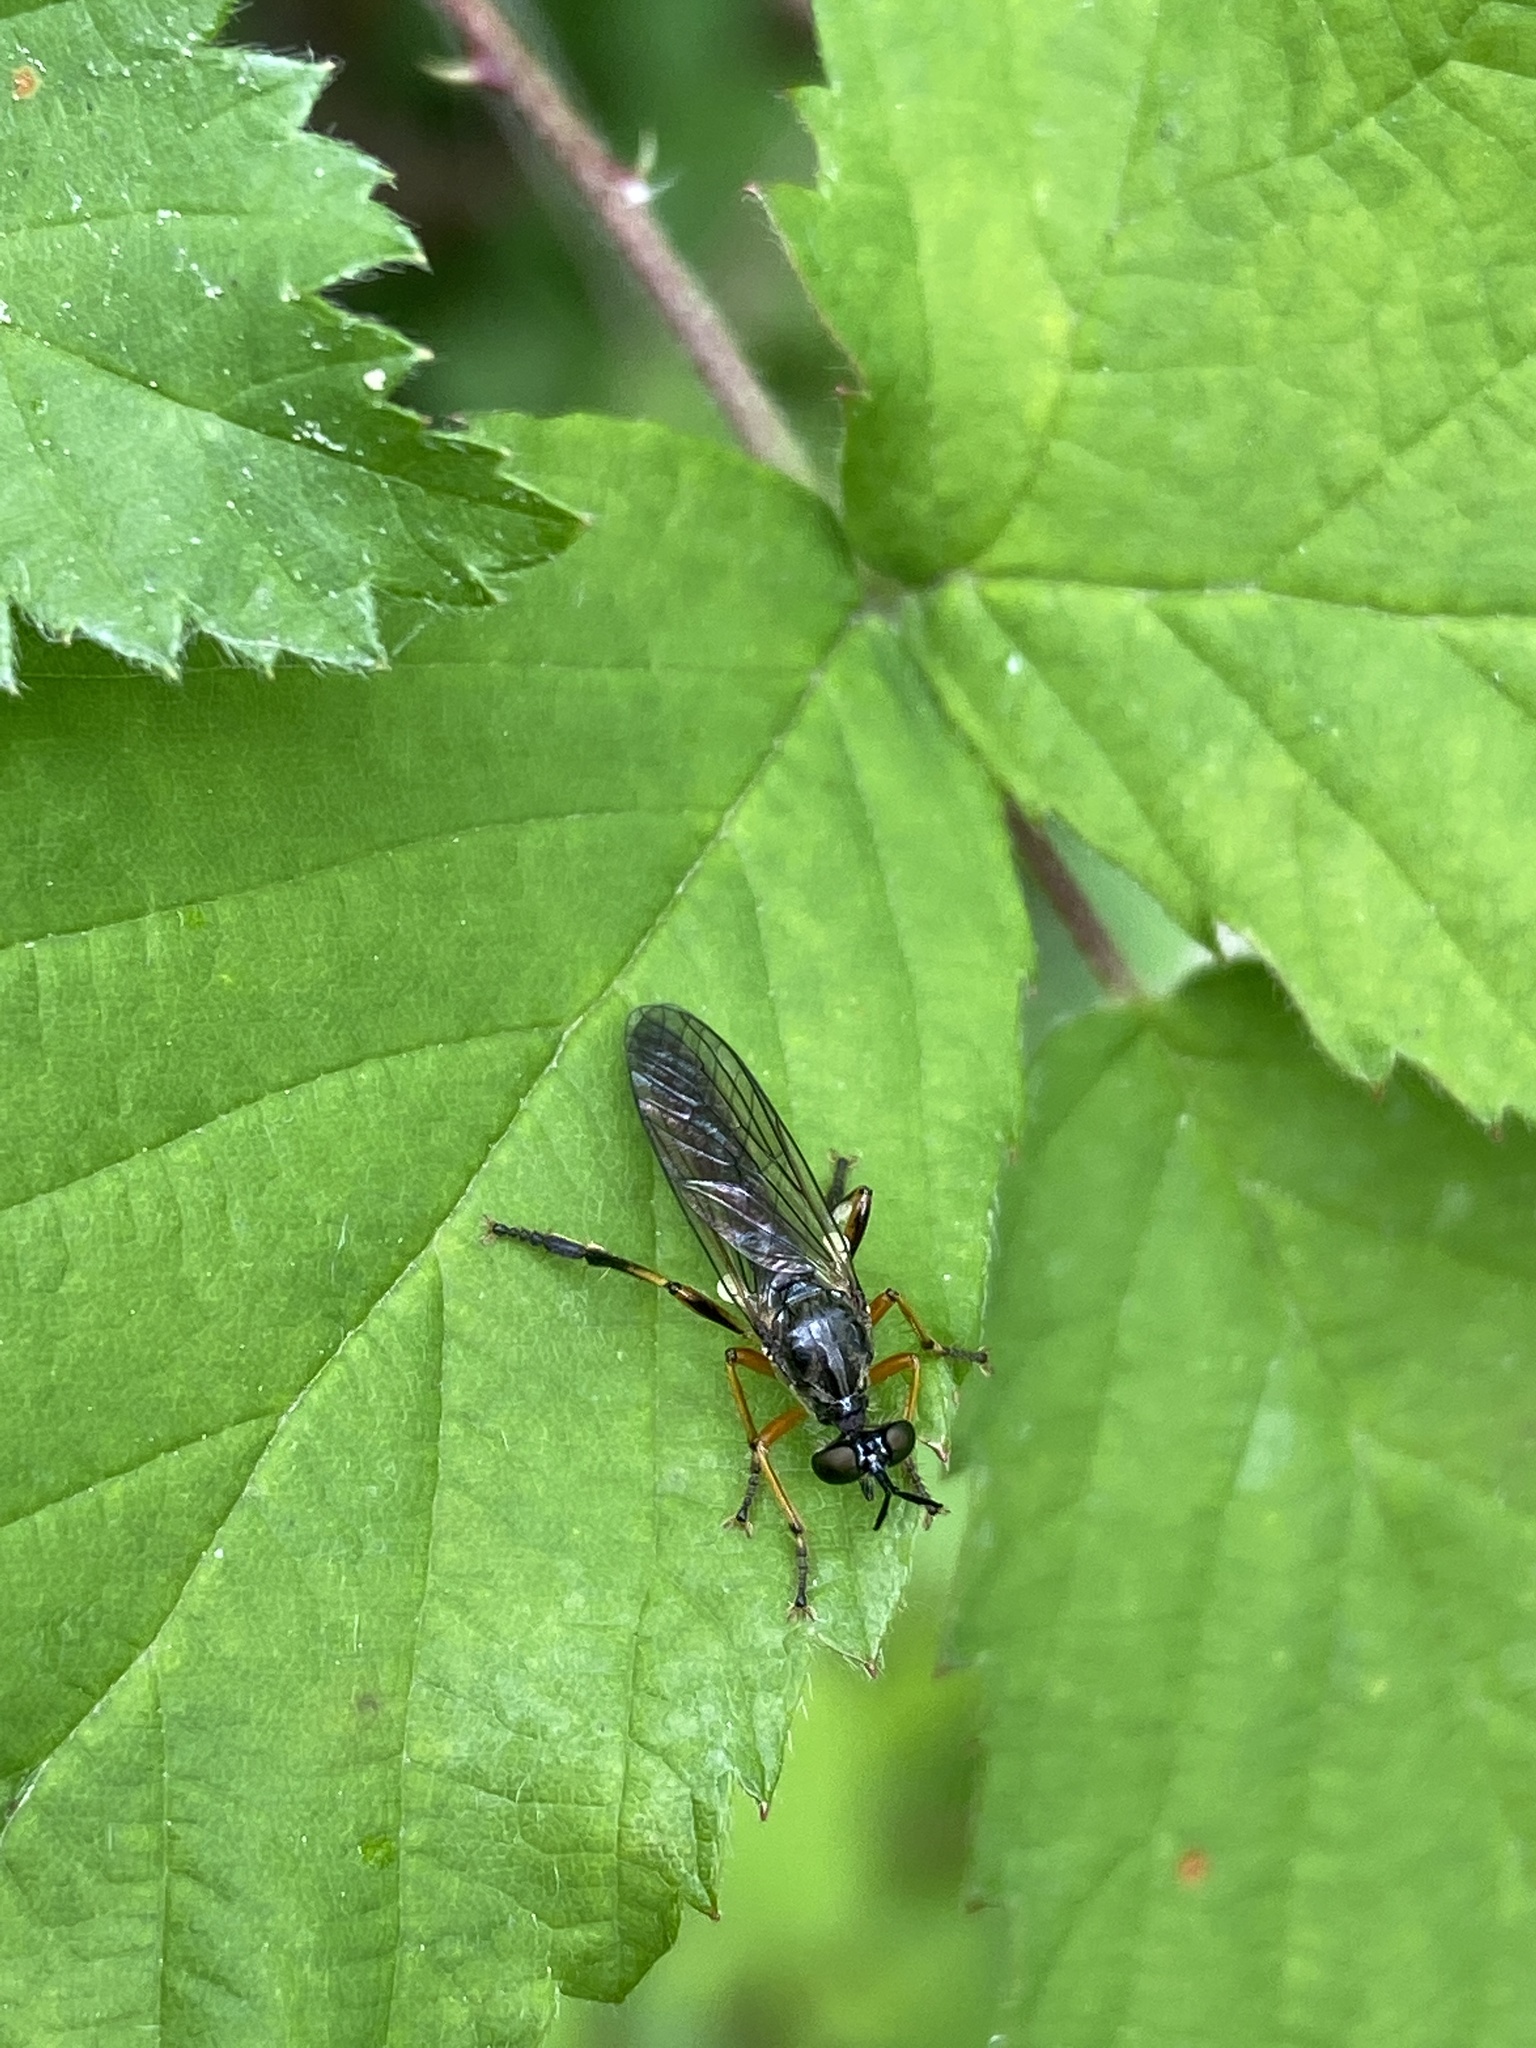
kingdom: Animalia
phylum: Arthropoda
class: Insecta
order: Diptera
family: Asilidae
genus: Dioctria
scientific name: Dioctria hyalipennis
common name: Stripe-legged robberfly
